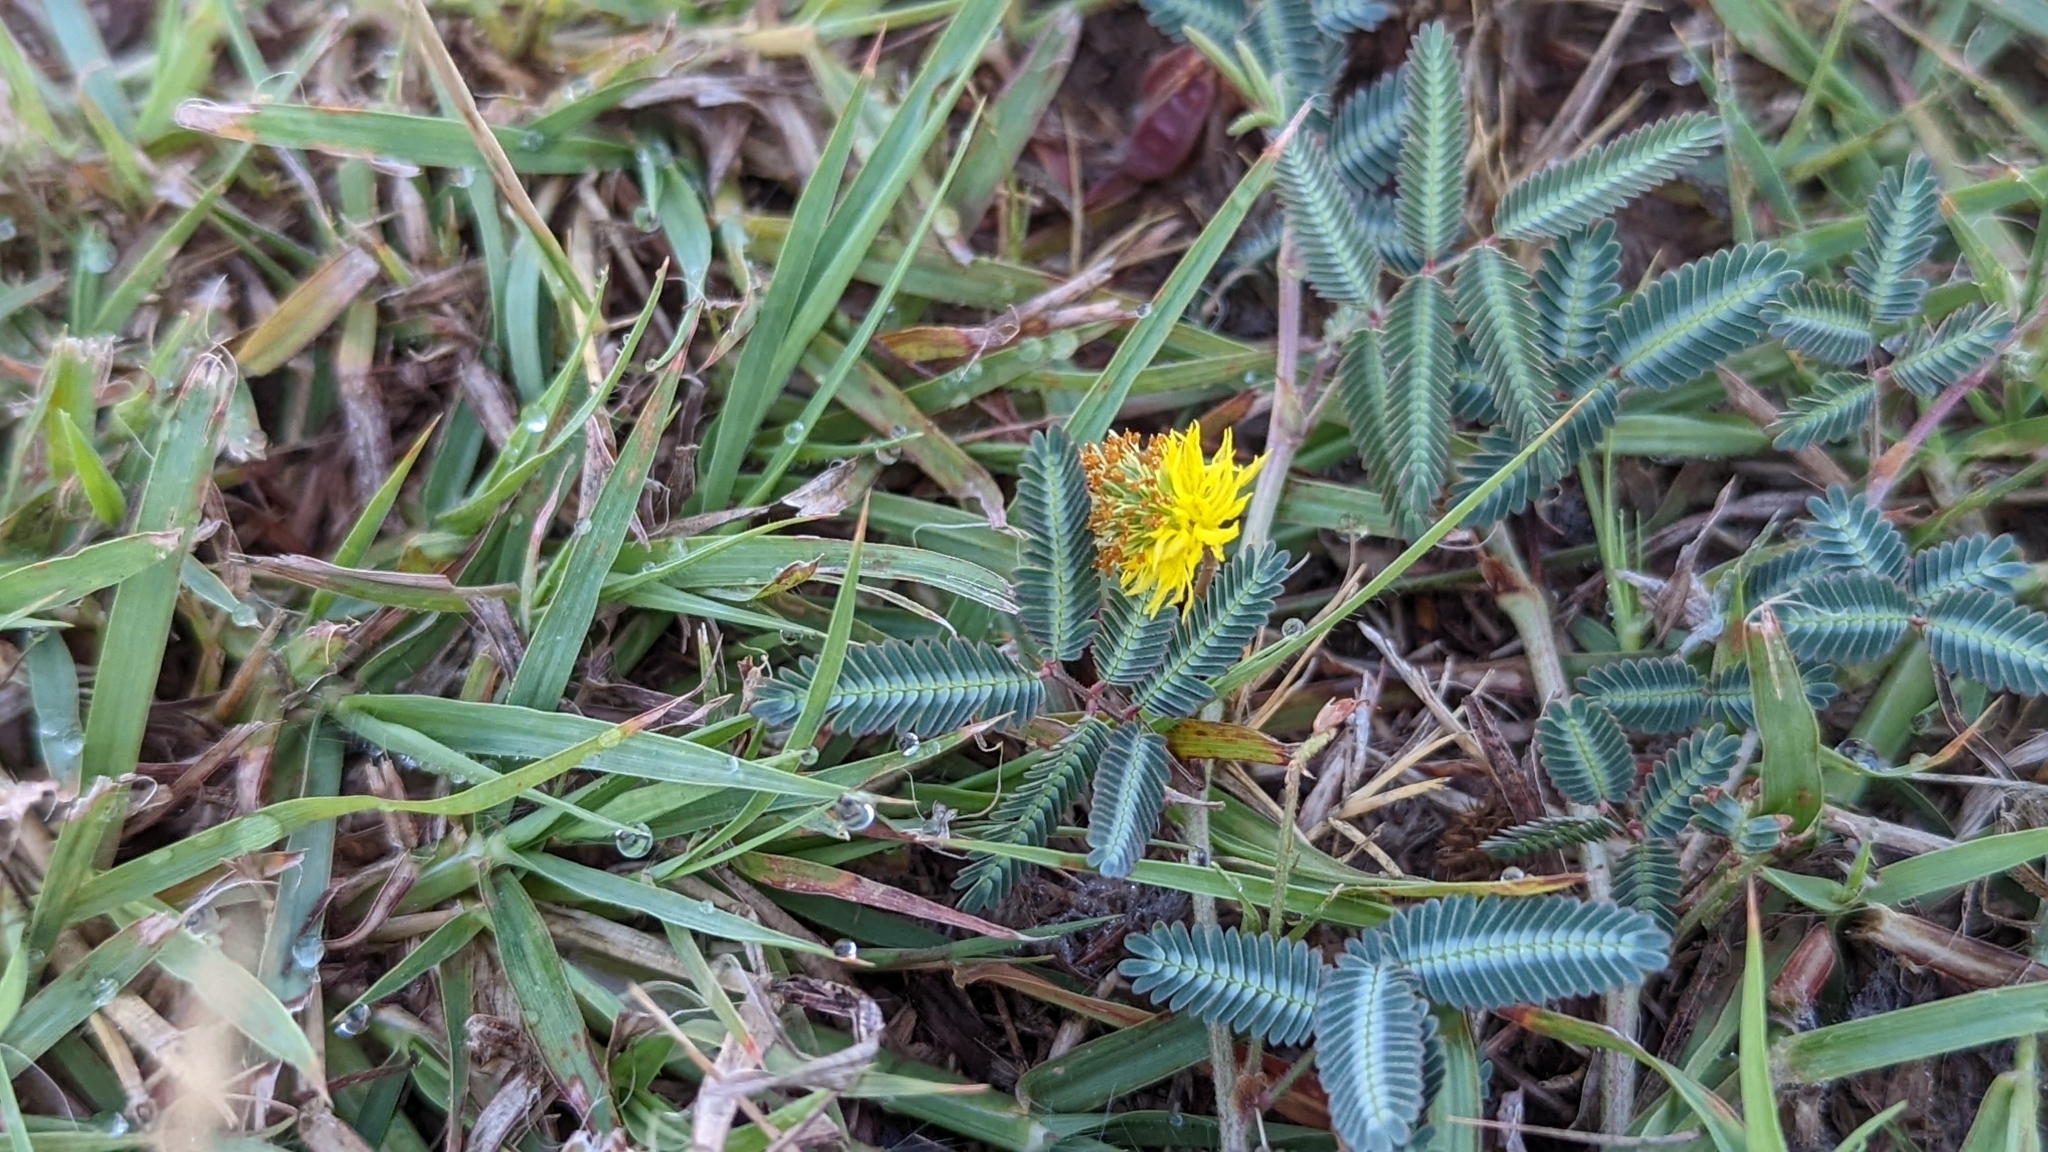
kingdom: Plantae
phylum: Tracheophyta
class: Magnoliopsida
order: Fabales
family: Fabaceae
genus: Neptunia
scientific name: Neptunia pubescens
